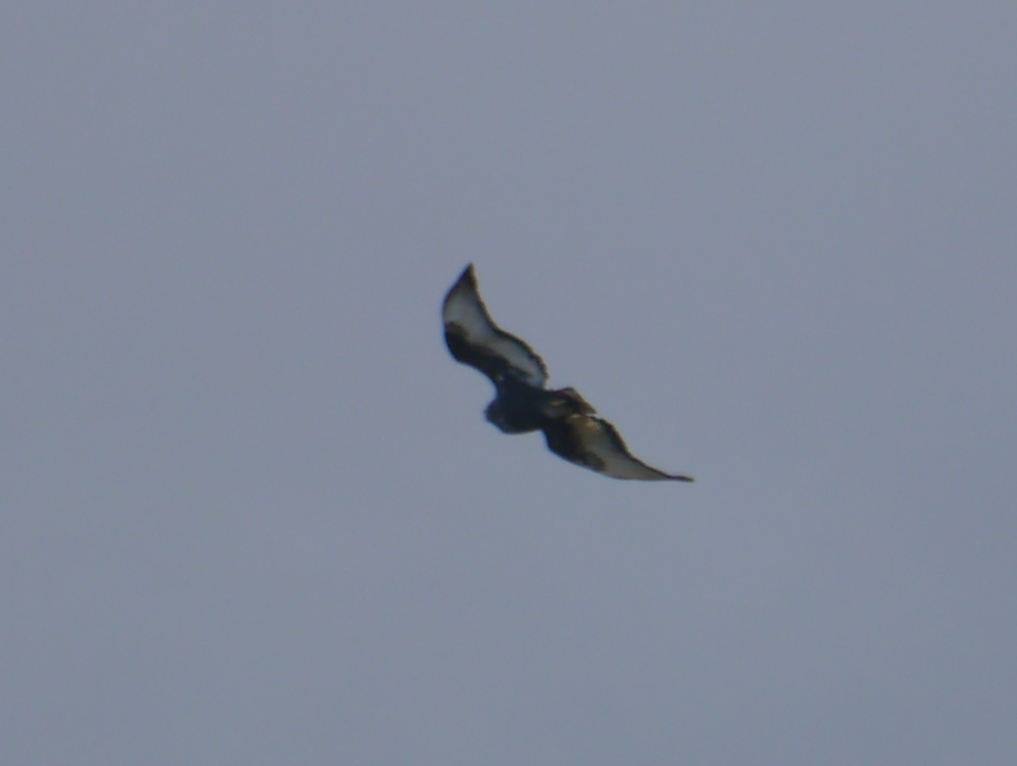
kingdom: Animalia
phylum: Chordata
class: Aves
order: Accipitriformes
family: Accipitridae
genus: Buteo
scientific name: Buteo augur
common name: Augur buzzard
